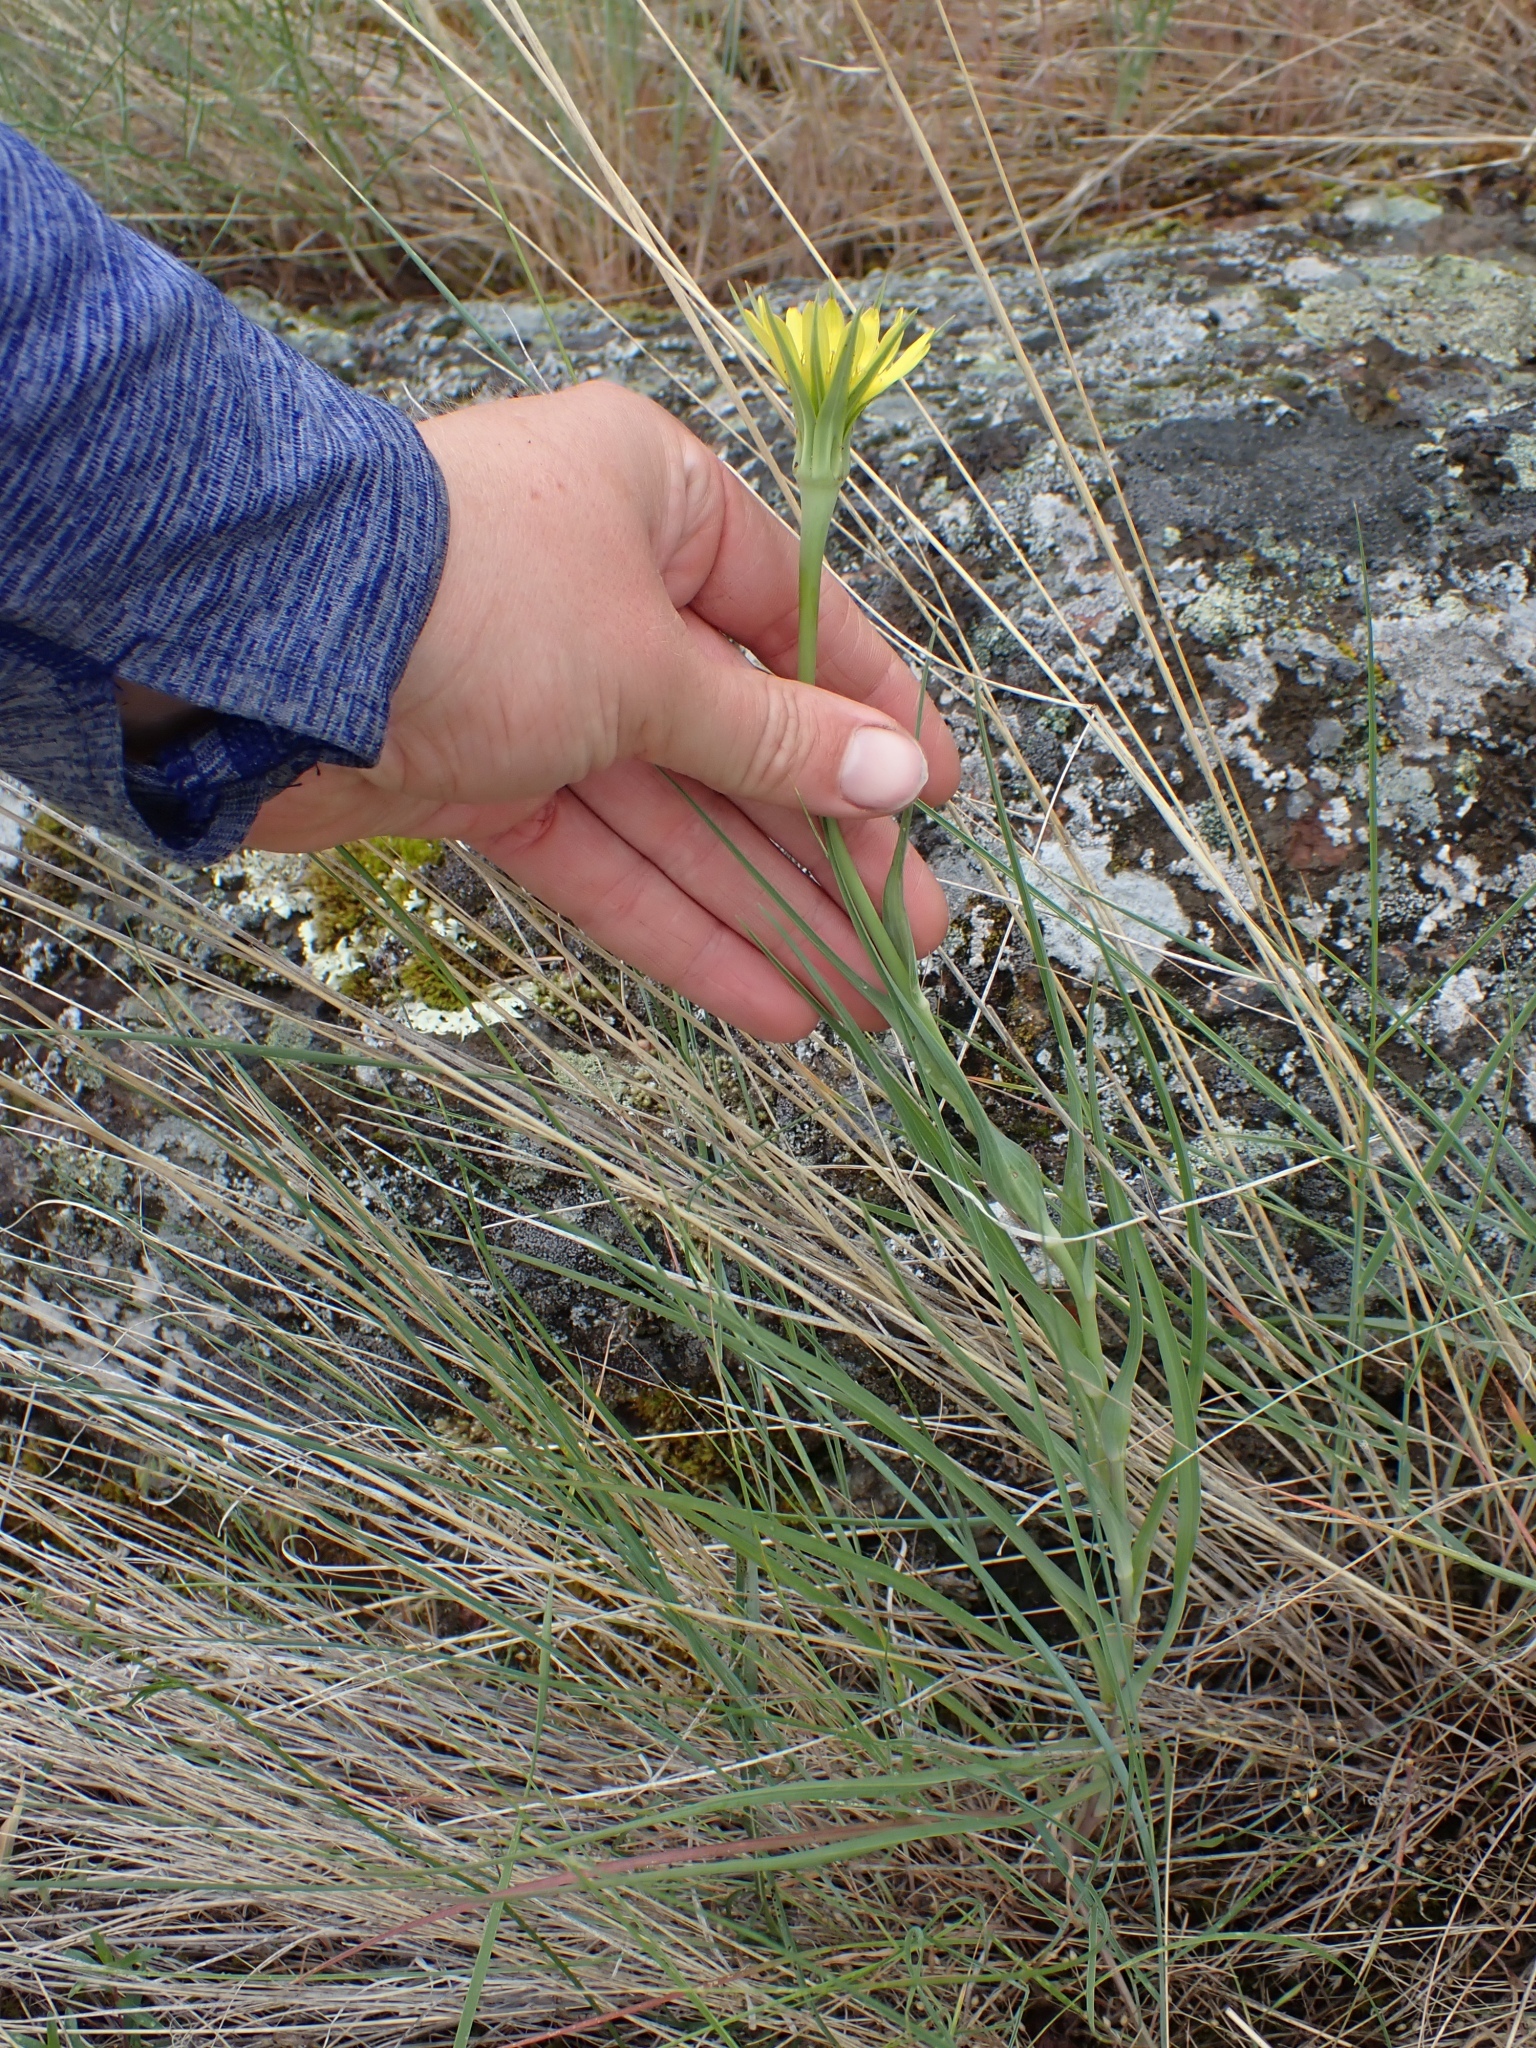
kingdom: Plantae
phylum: Tracheophyta
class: Magnoliopsida
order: Asterales
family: Asteraceae
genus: Tragopogon
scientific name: Tragopogon dubius
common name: Yellow salsify
